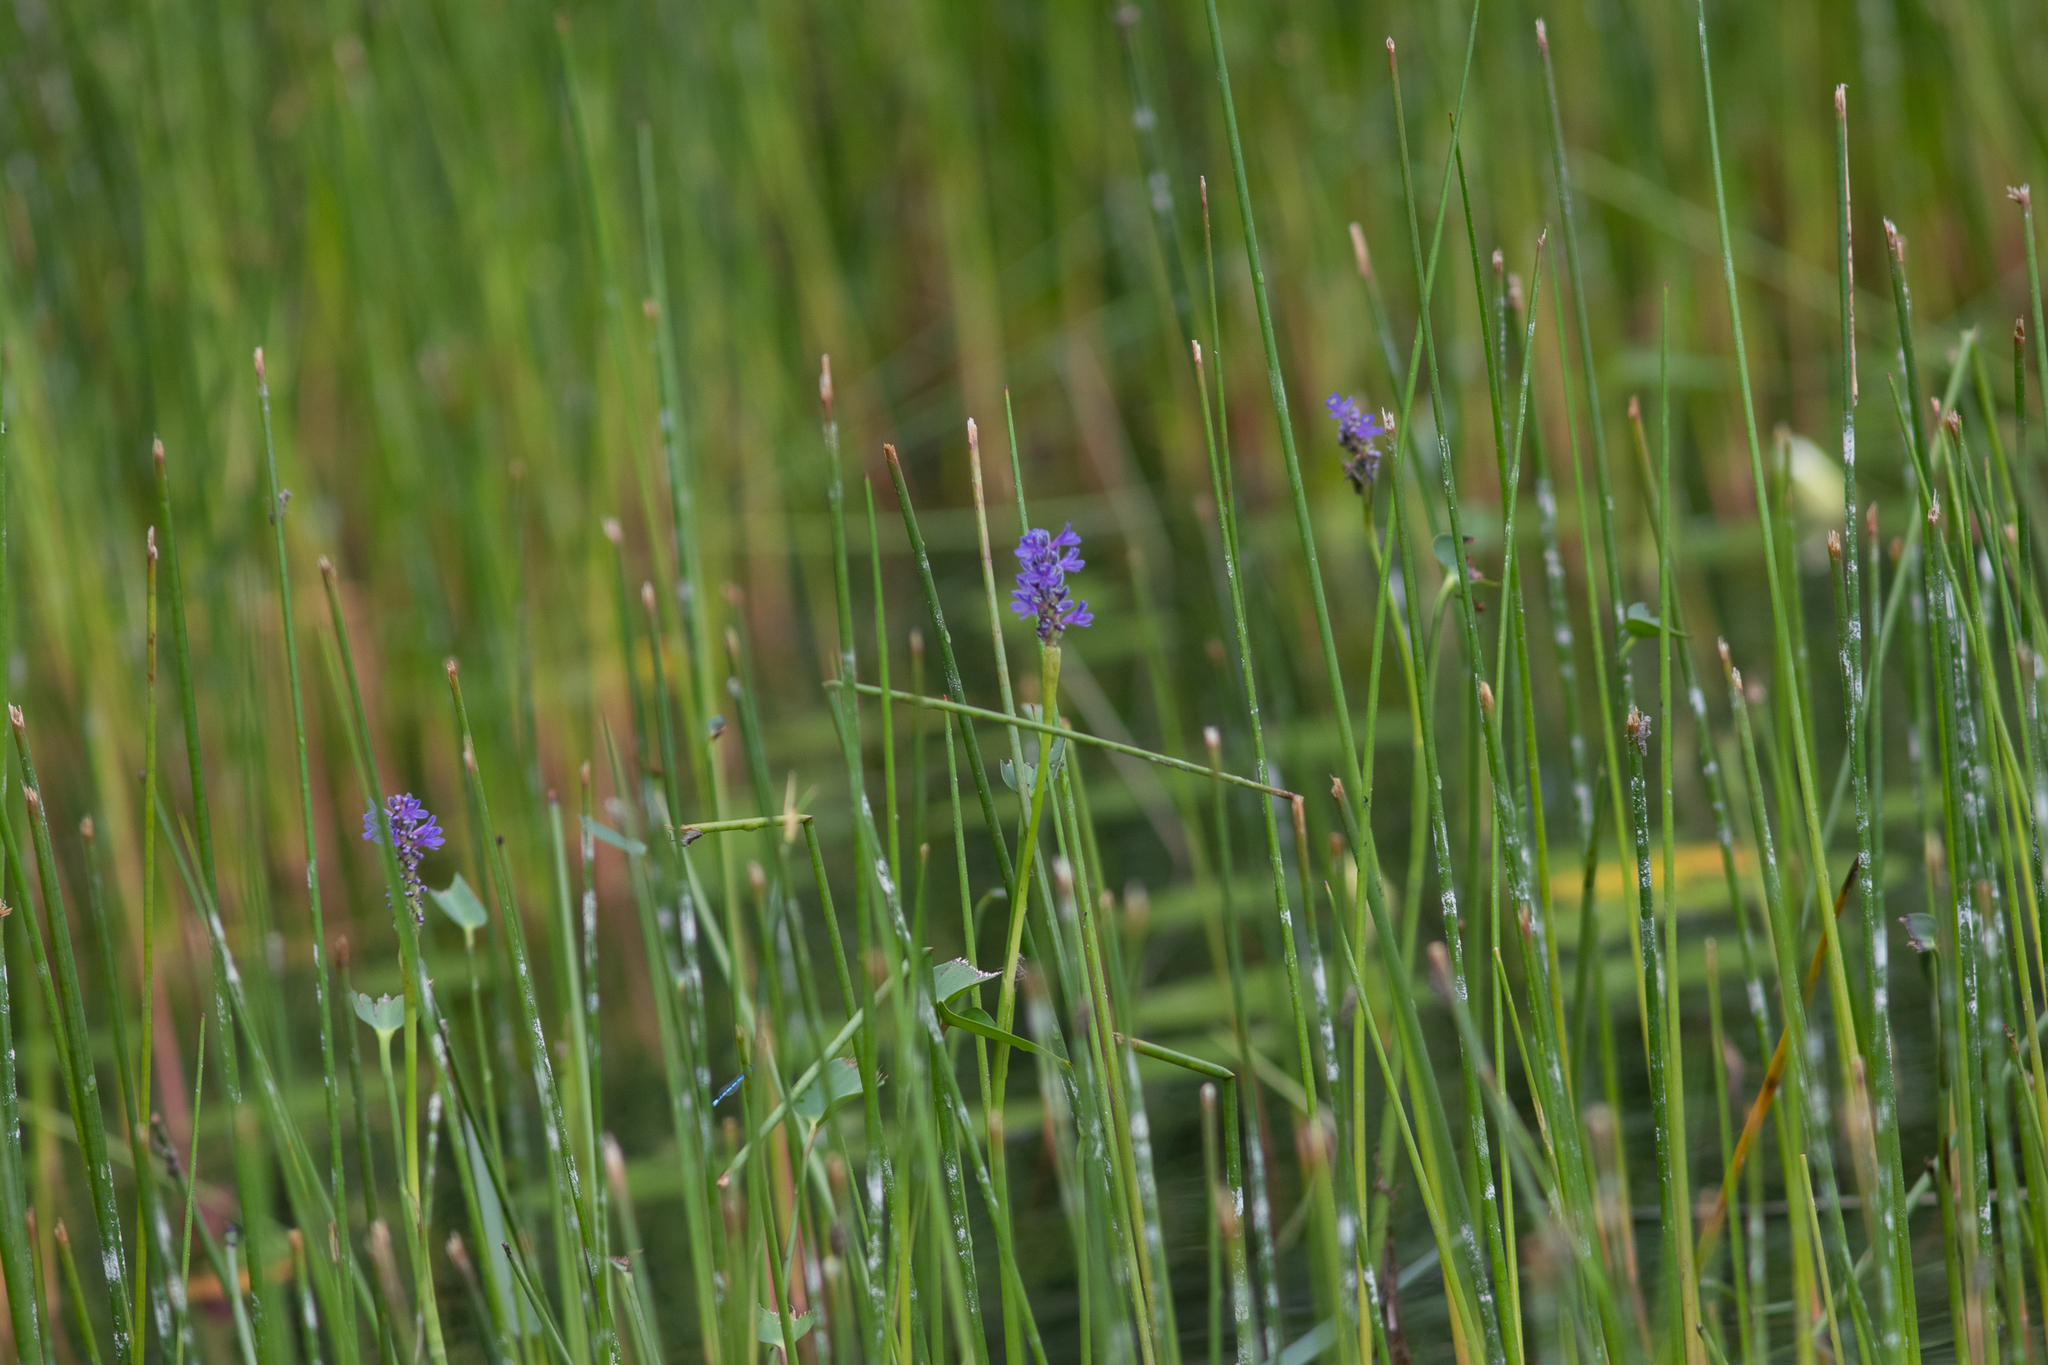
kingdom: Plantae
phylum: Tracheophyta
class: Liliopsida
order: Commelinales
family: Pontederiaceae
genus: Pontederia
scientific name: Pontederia cordata
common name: Pickerelweed
